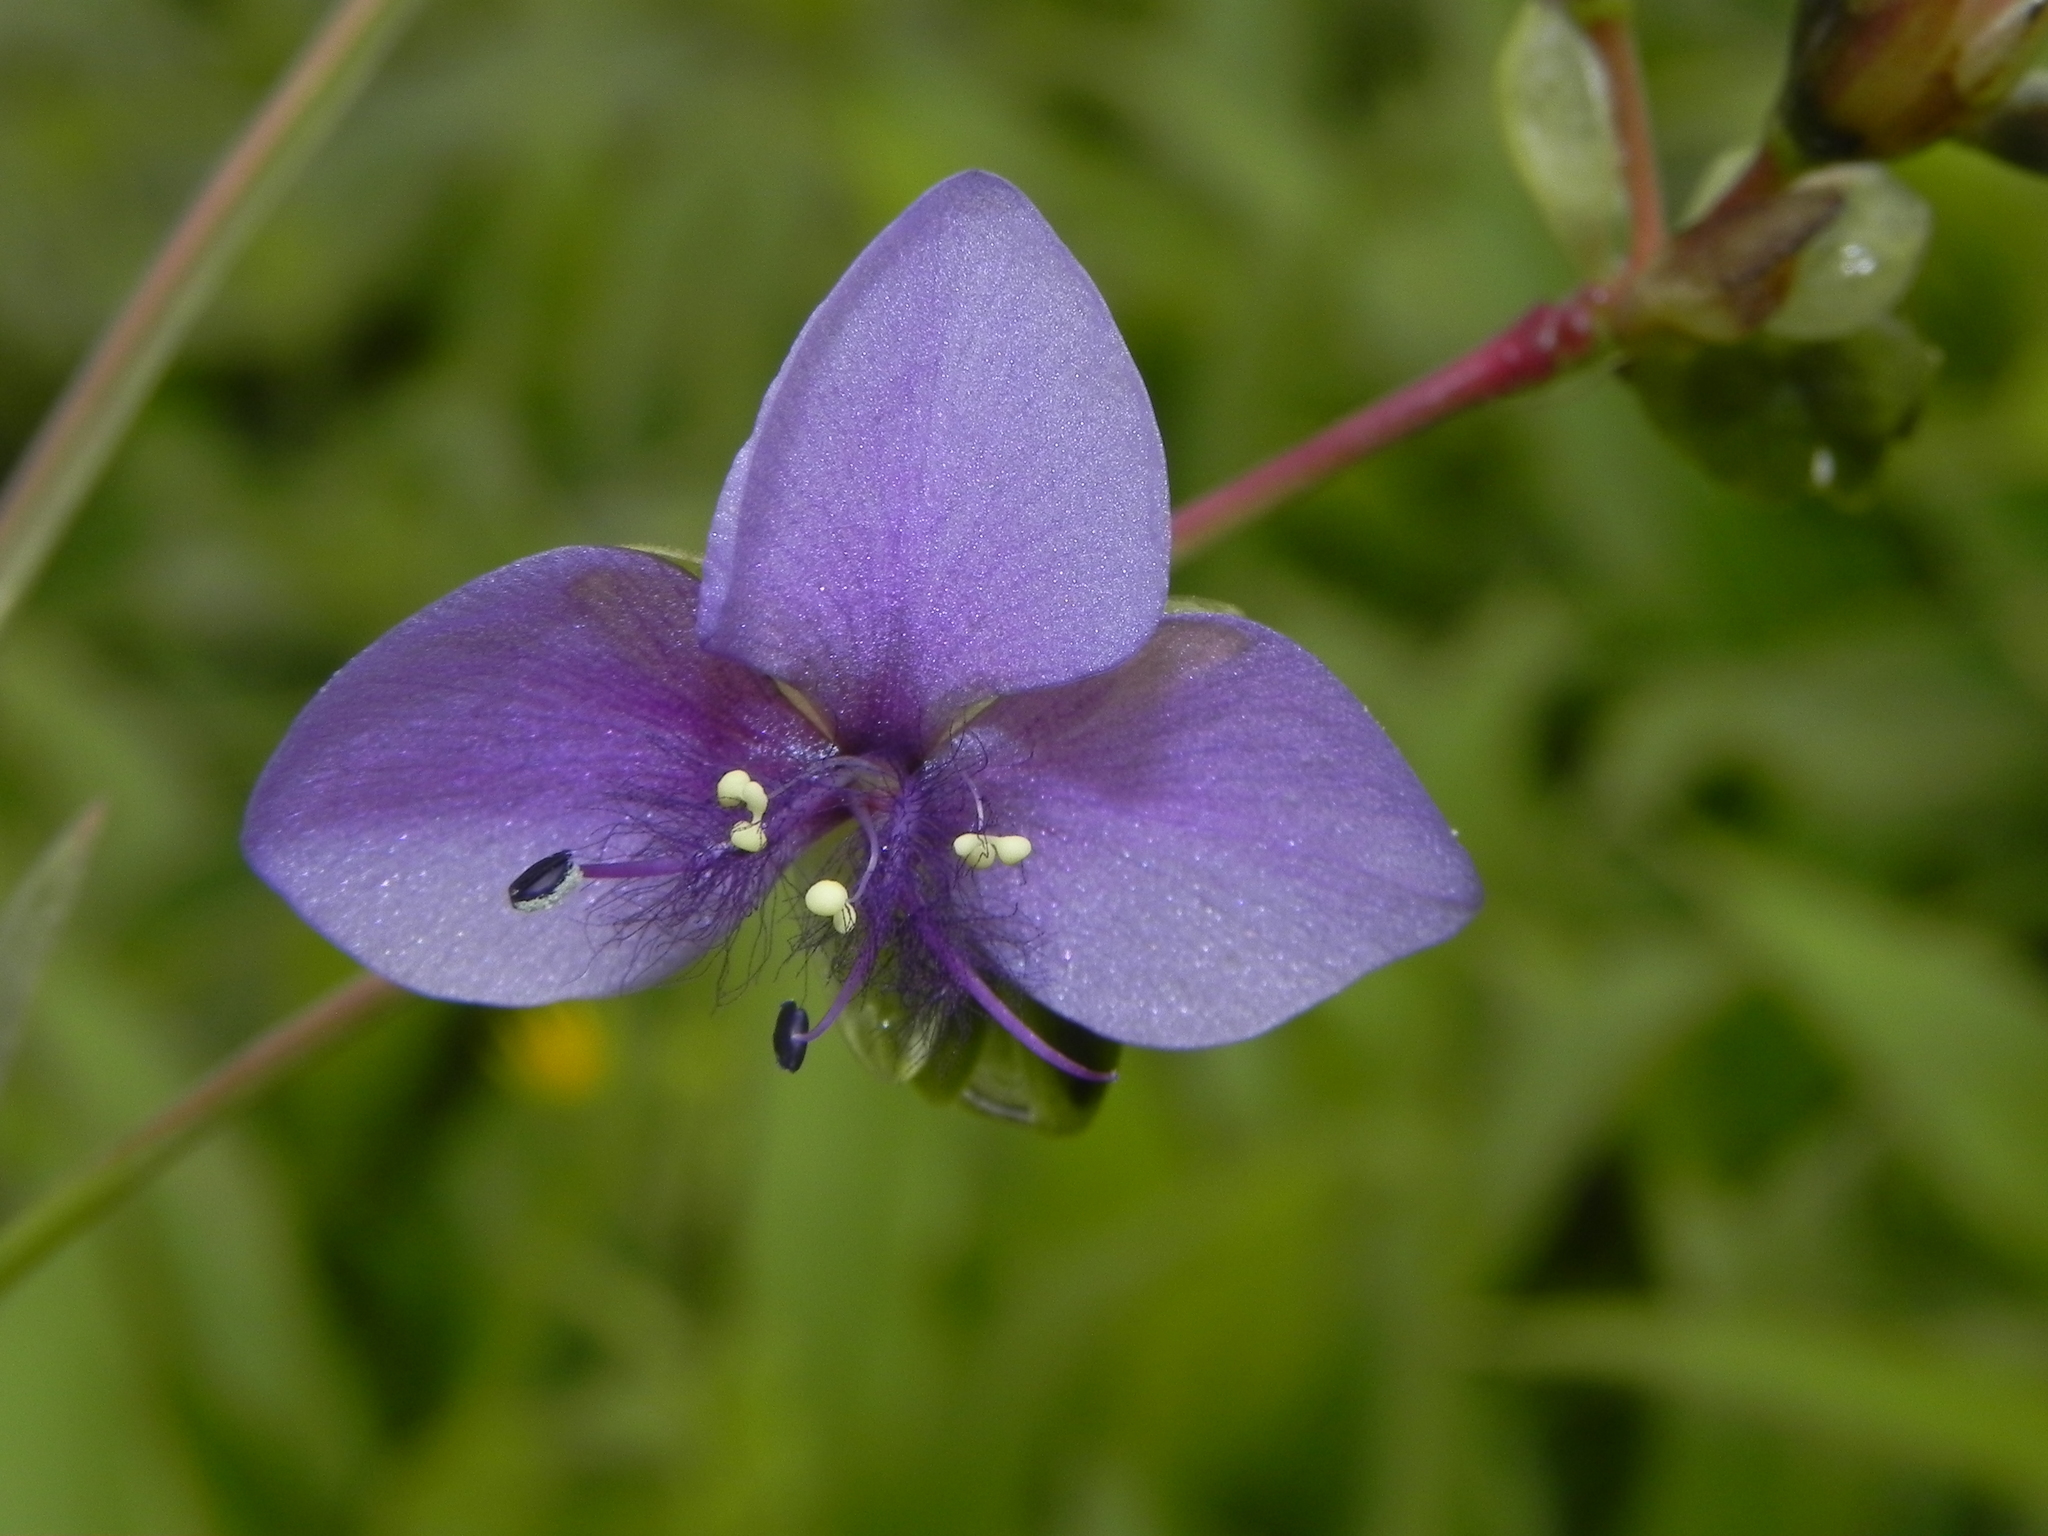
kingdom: Plantae
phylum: Tracheophyta
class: Liliopsida
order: Commelinales
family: Commelinaceae
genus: Murdannia
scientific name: Murdannia simplex
